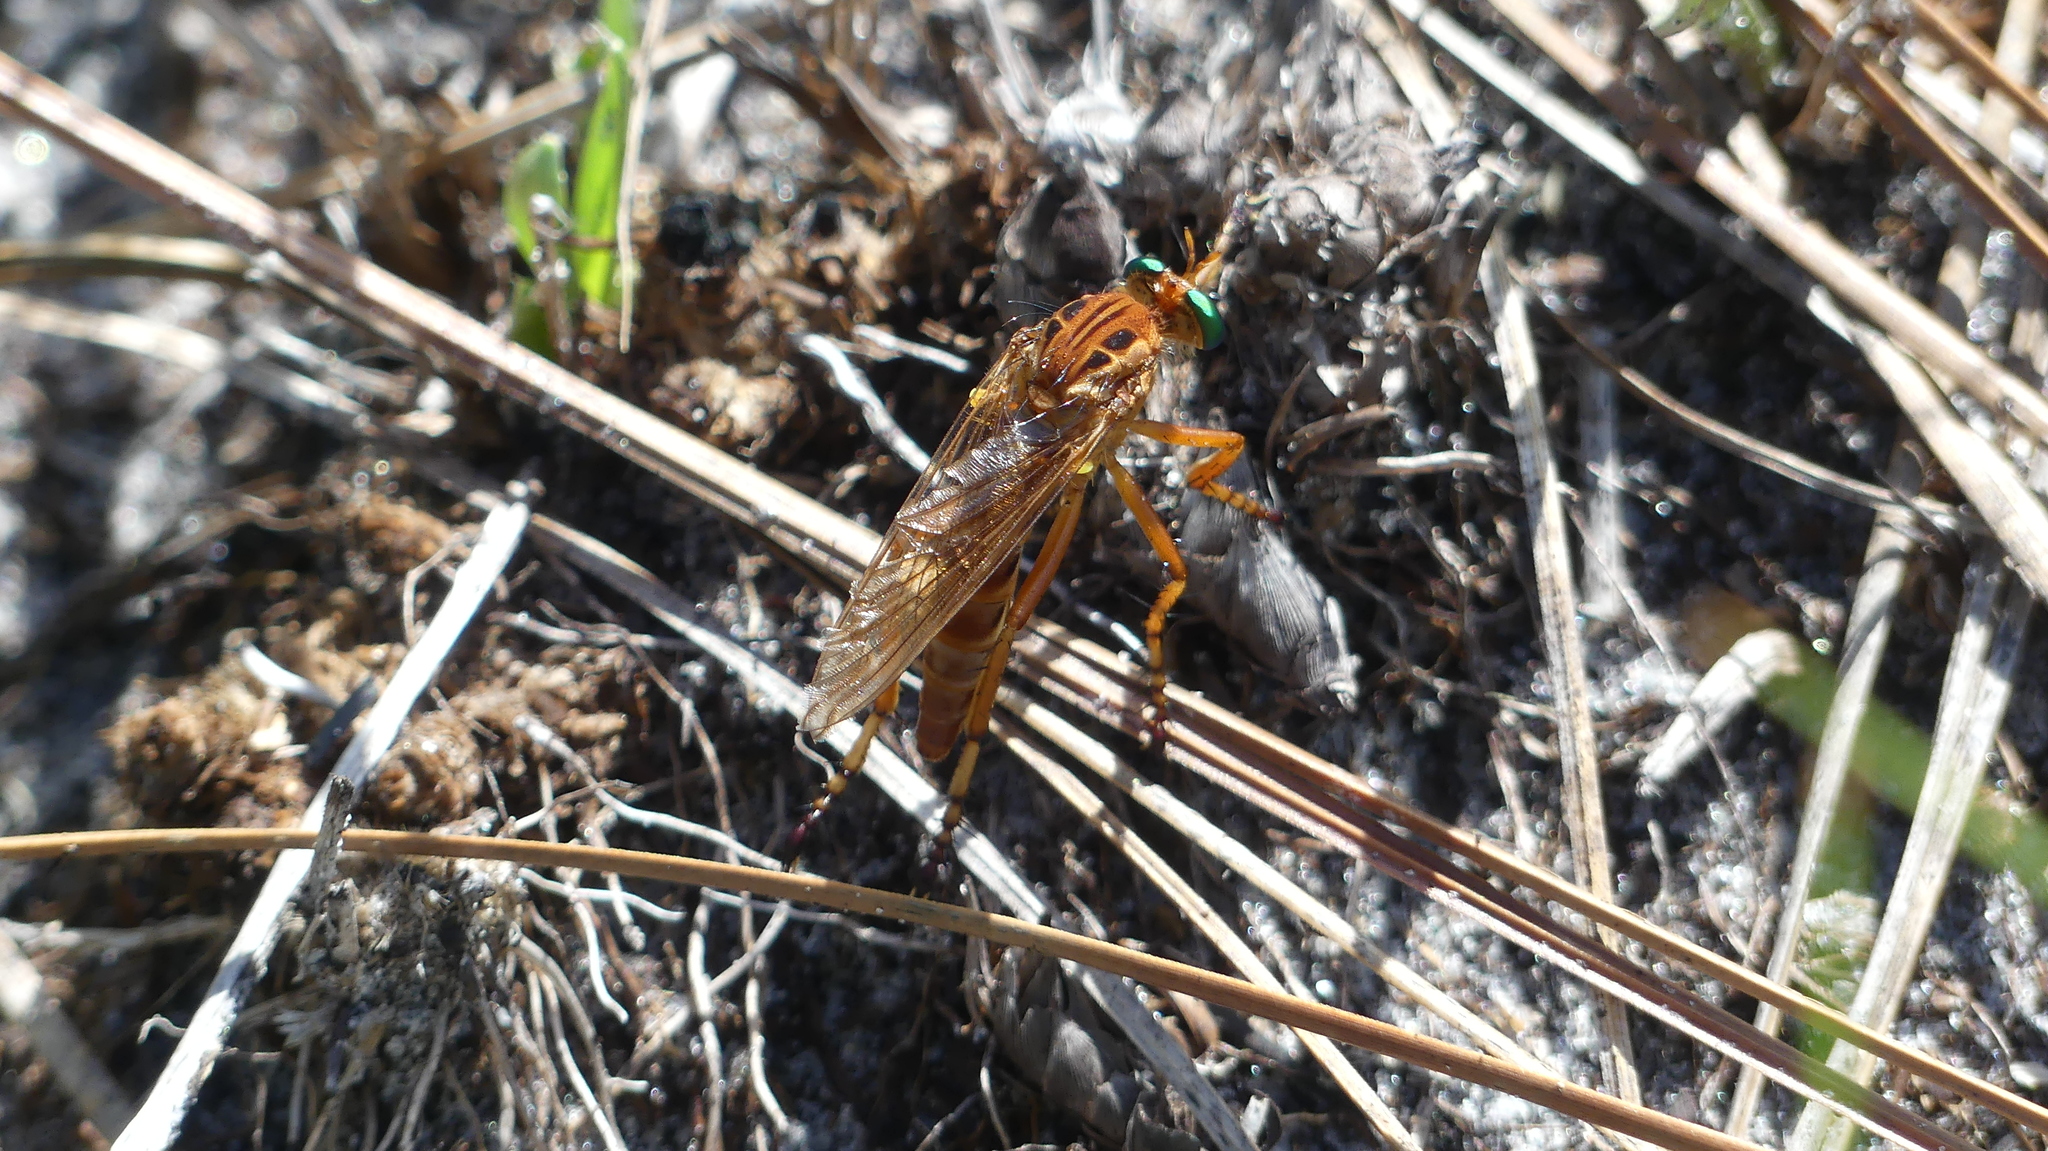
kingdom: Animalia
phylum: Arthropoda
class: Insecta
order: Diptera
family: Asilidae
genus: Diogmites
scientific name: Diogmites esuriens
